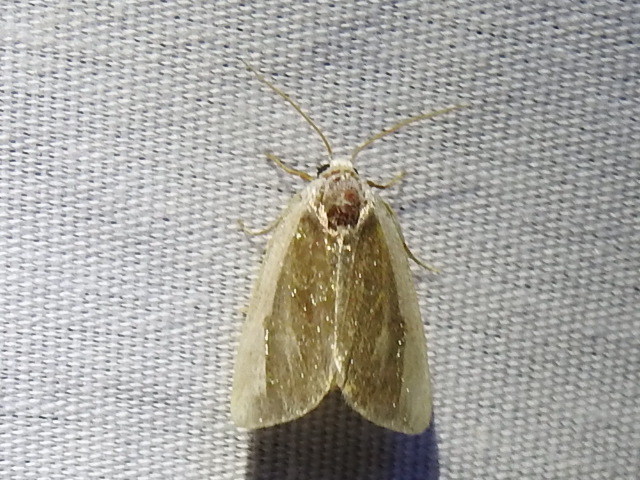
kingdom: Animalia
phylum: Arthropoda
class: Insecta
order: Lepidoptera
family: Noctuidae
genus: Neumoegenia
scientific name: Neumoegenia poetica
